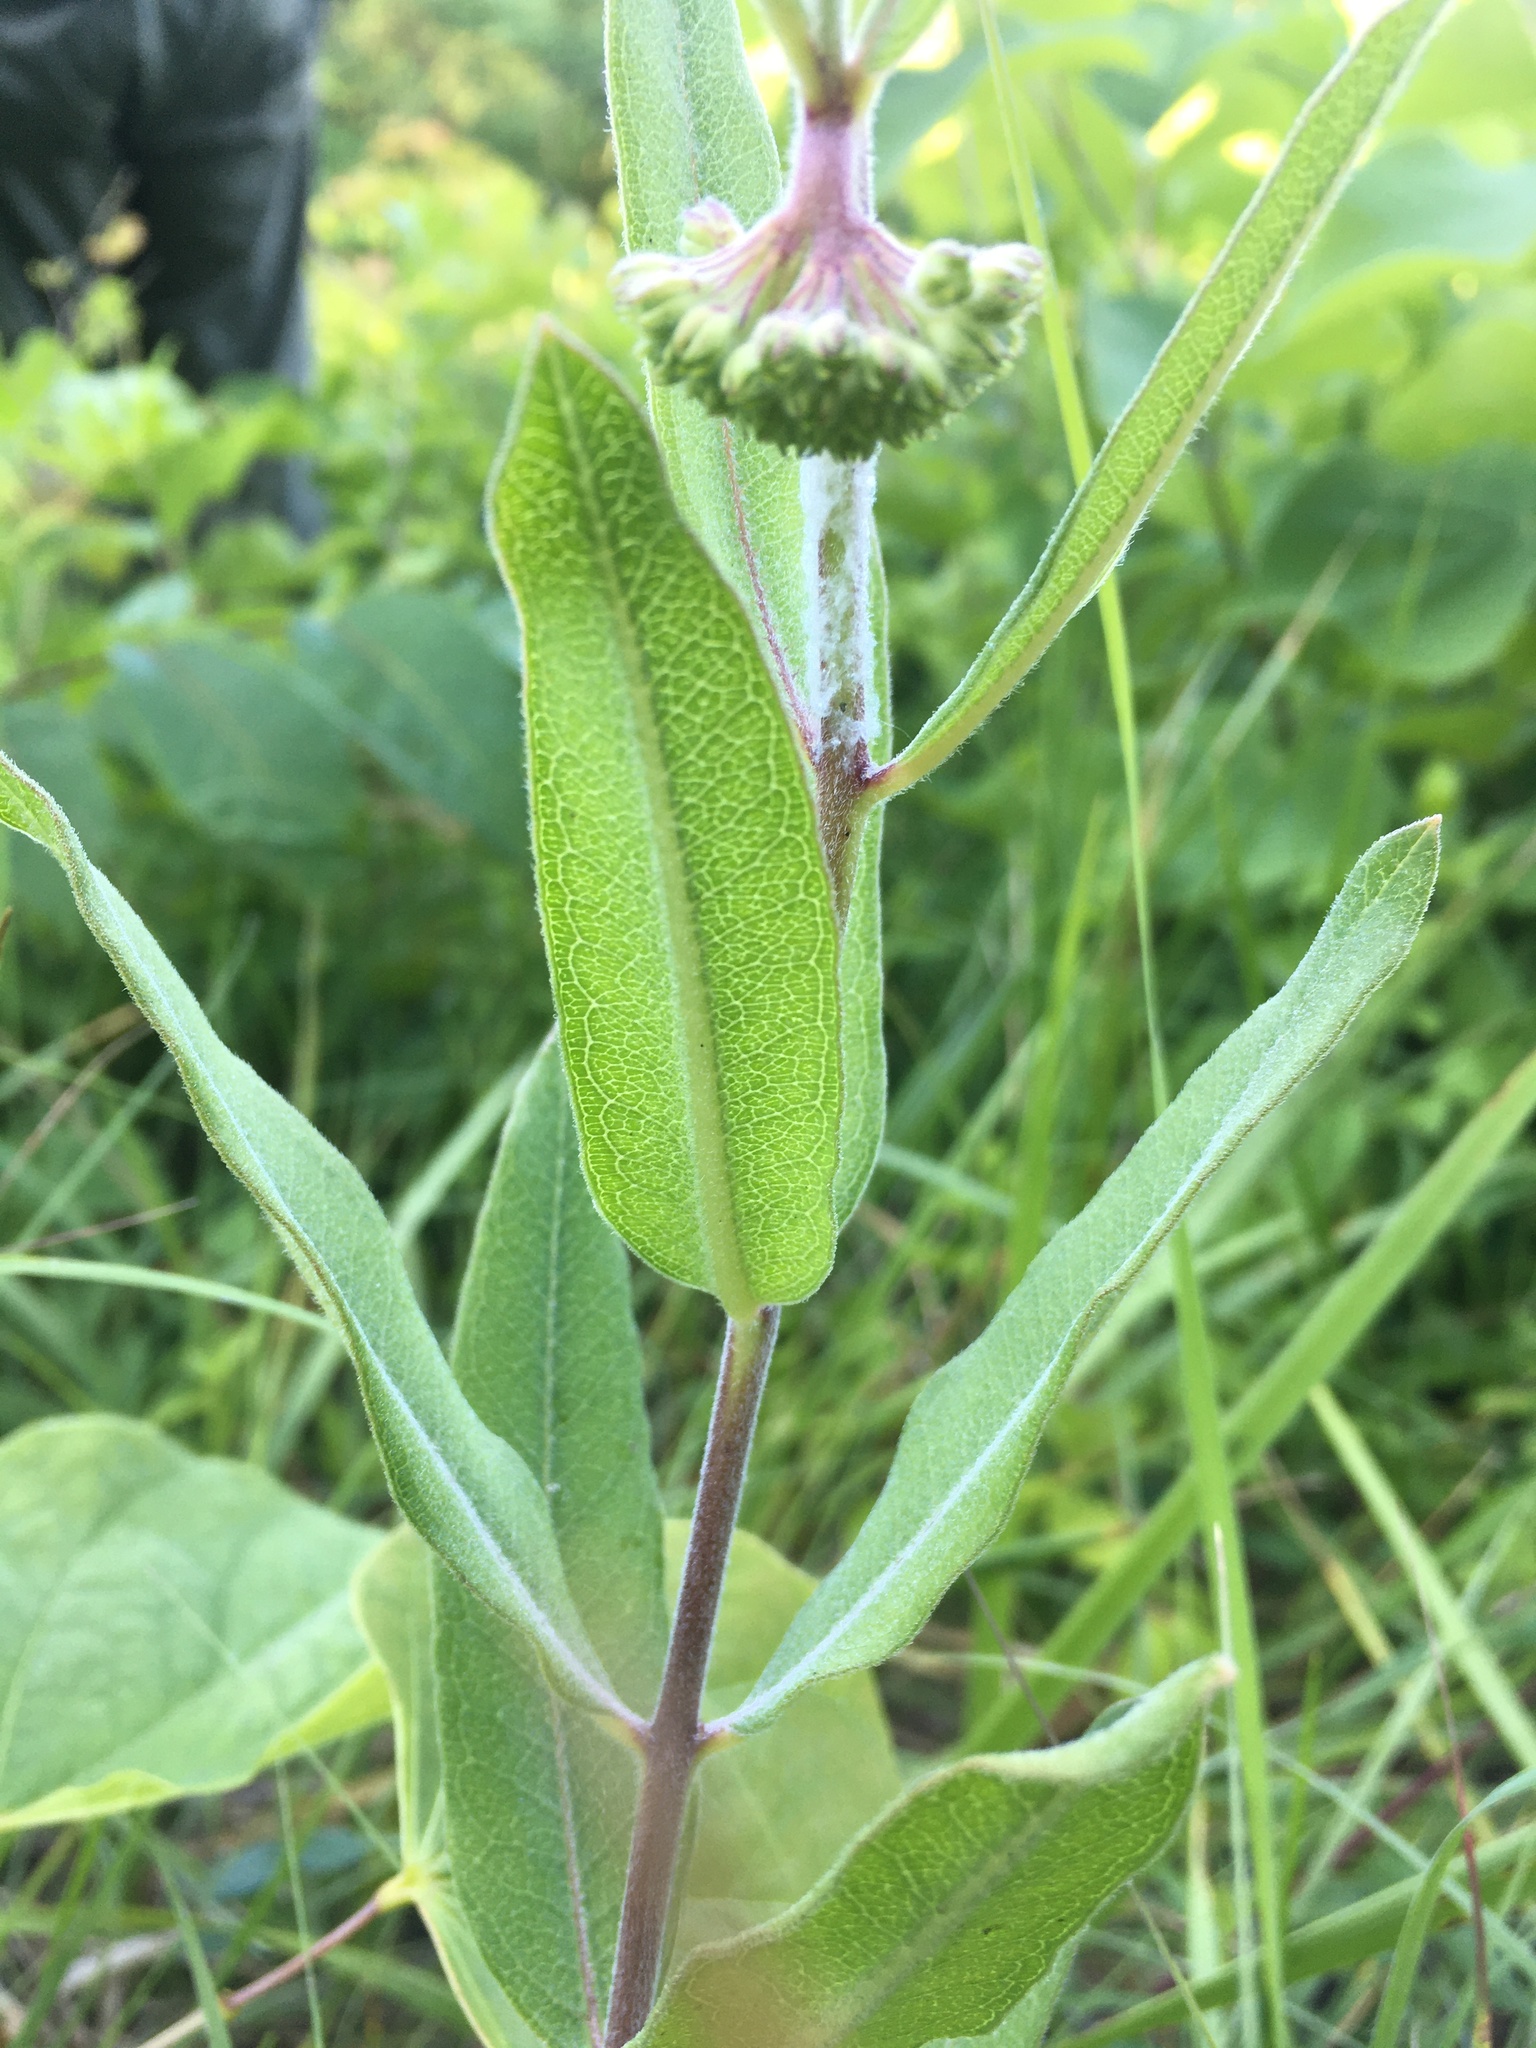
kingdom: Plantae
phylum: Tracheophyta
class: Magnoliopsida
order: Gentianales
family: Apocynaceae
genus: Asclepias
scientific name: Asclepias viridiflora
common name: Green comet milkweed
